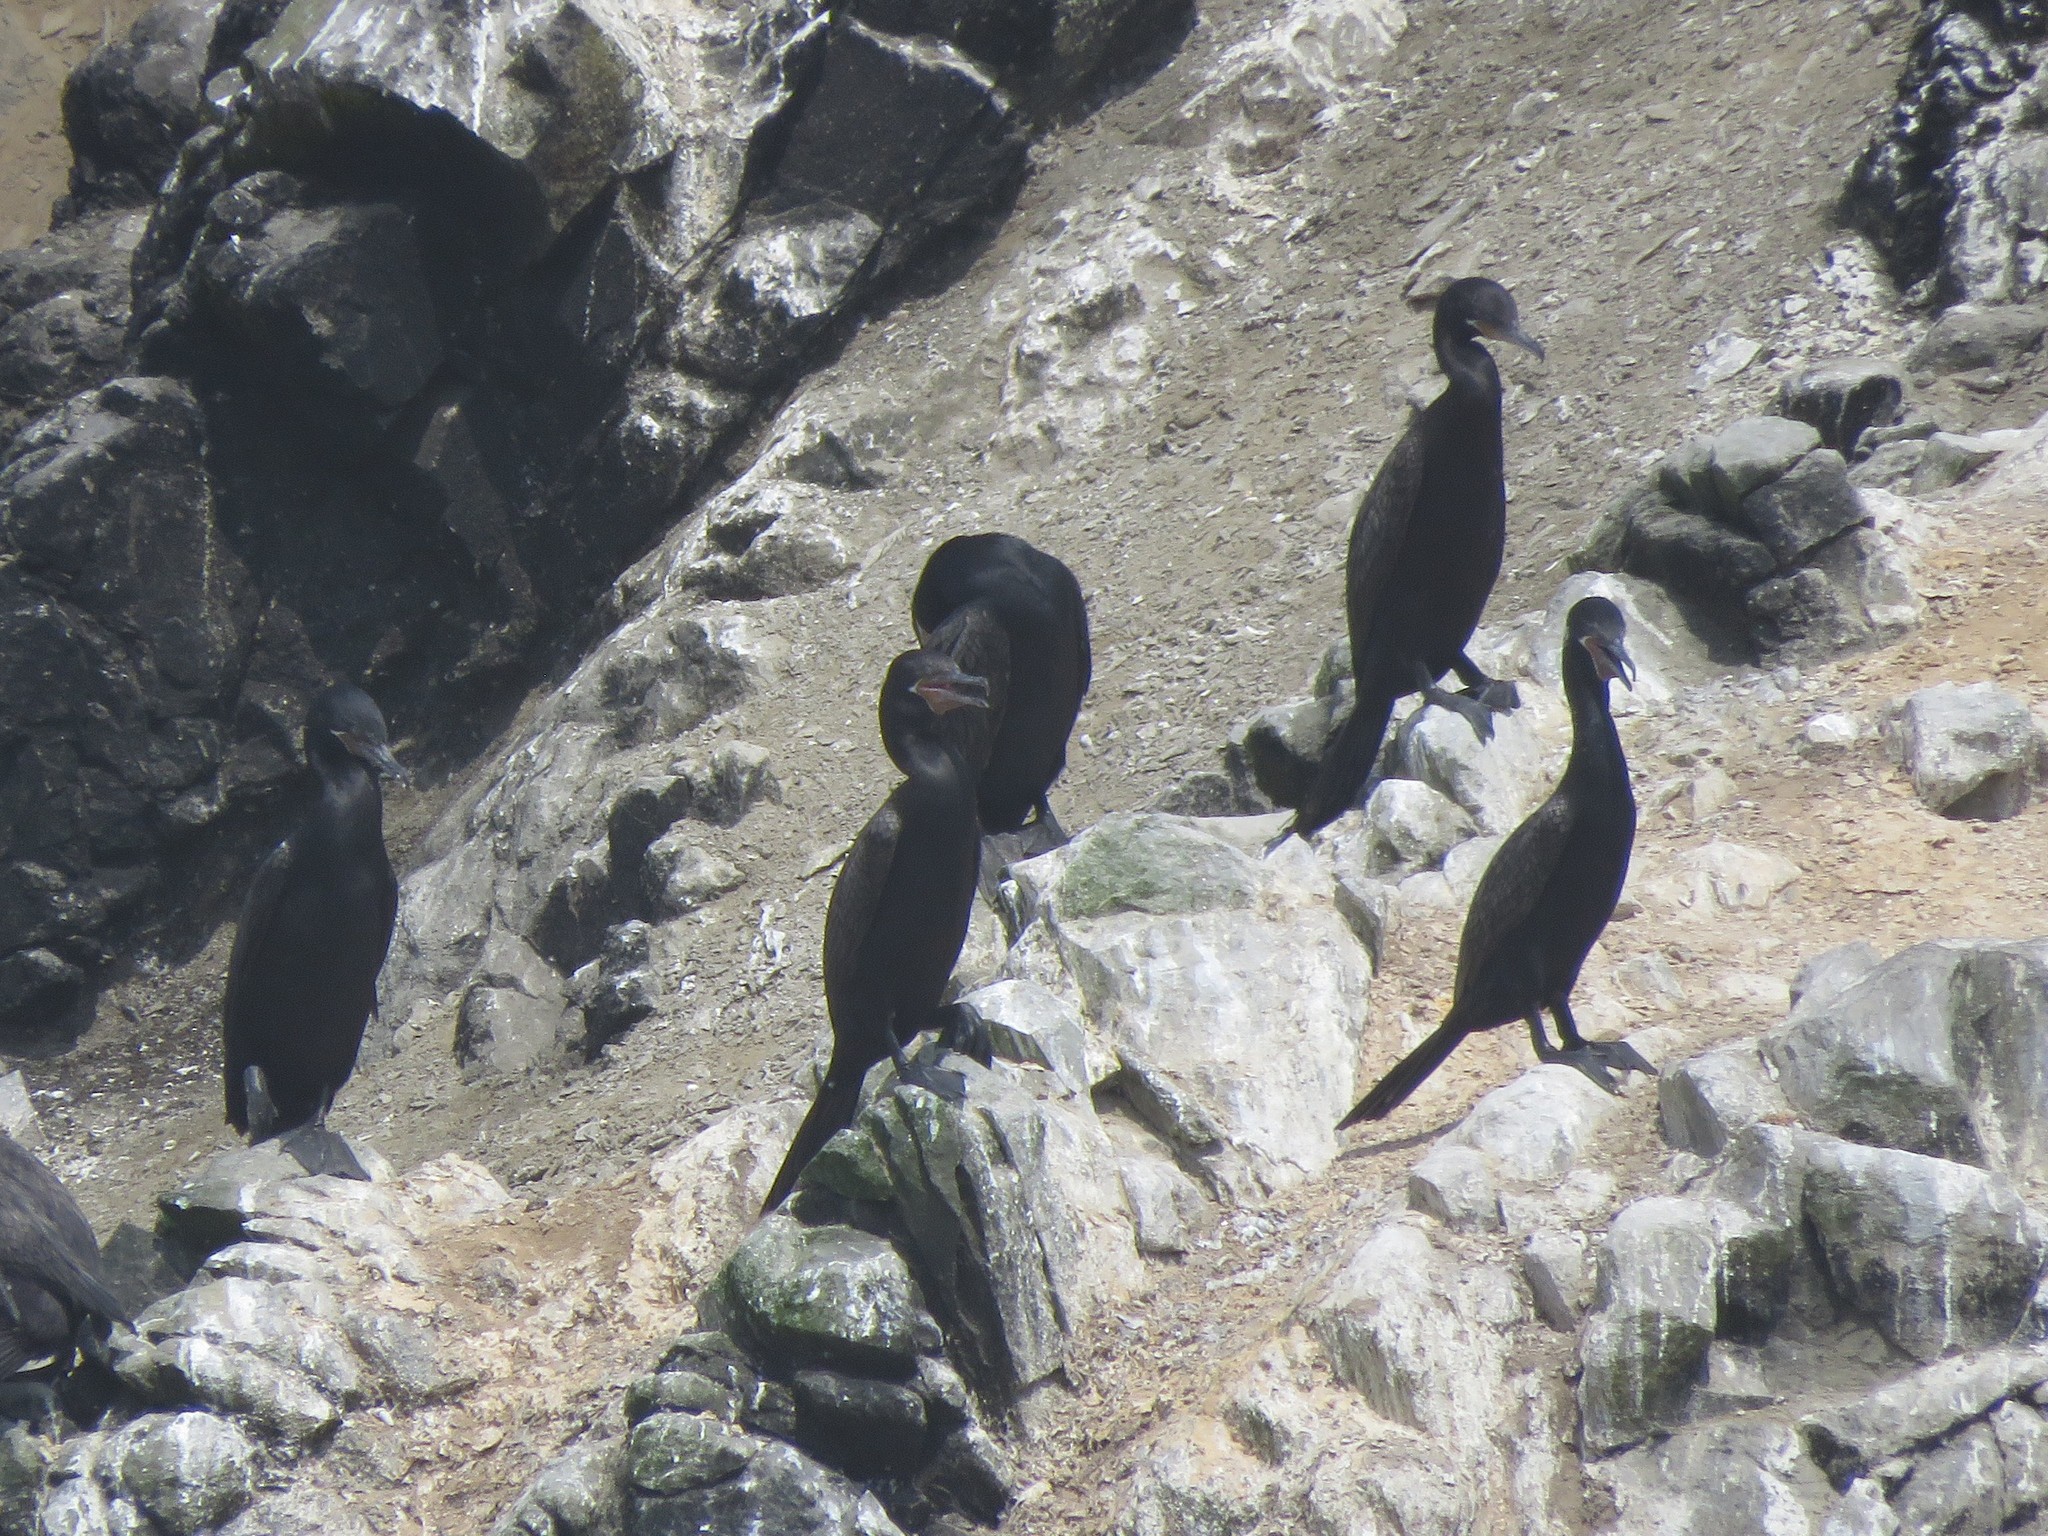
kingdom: Animalia
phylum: Chordata
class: Aves
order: Suliformes
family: Phalacrocoracidae
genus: Phalacrocorax
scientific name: Phalacrocorax brasilianus
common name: Neotropic cormorant
